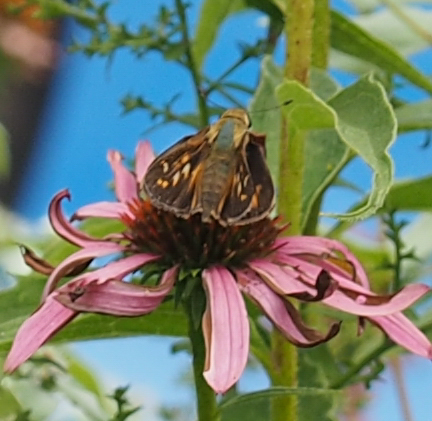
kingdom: Animalia
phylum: Arthropoda
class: Insecta
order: Lepidoptera
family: Hesperiidae
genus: Atalopedes
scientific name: Atalopedes
